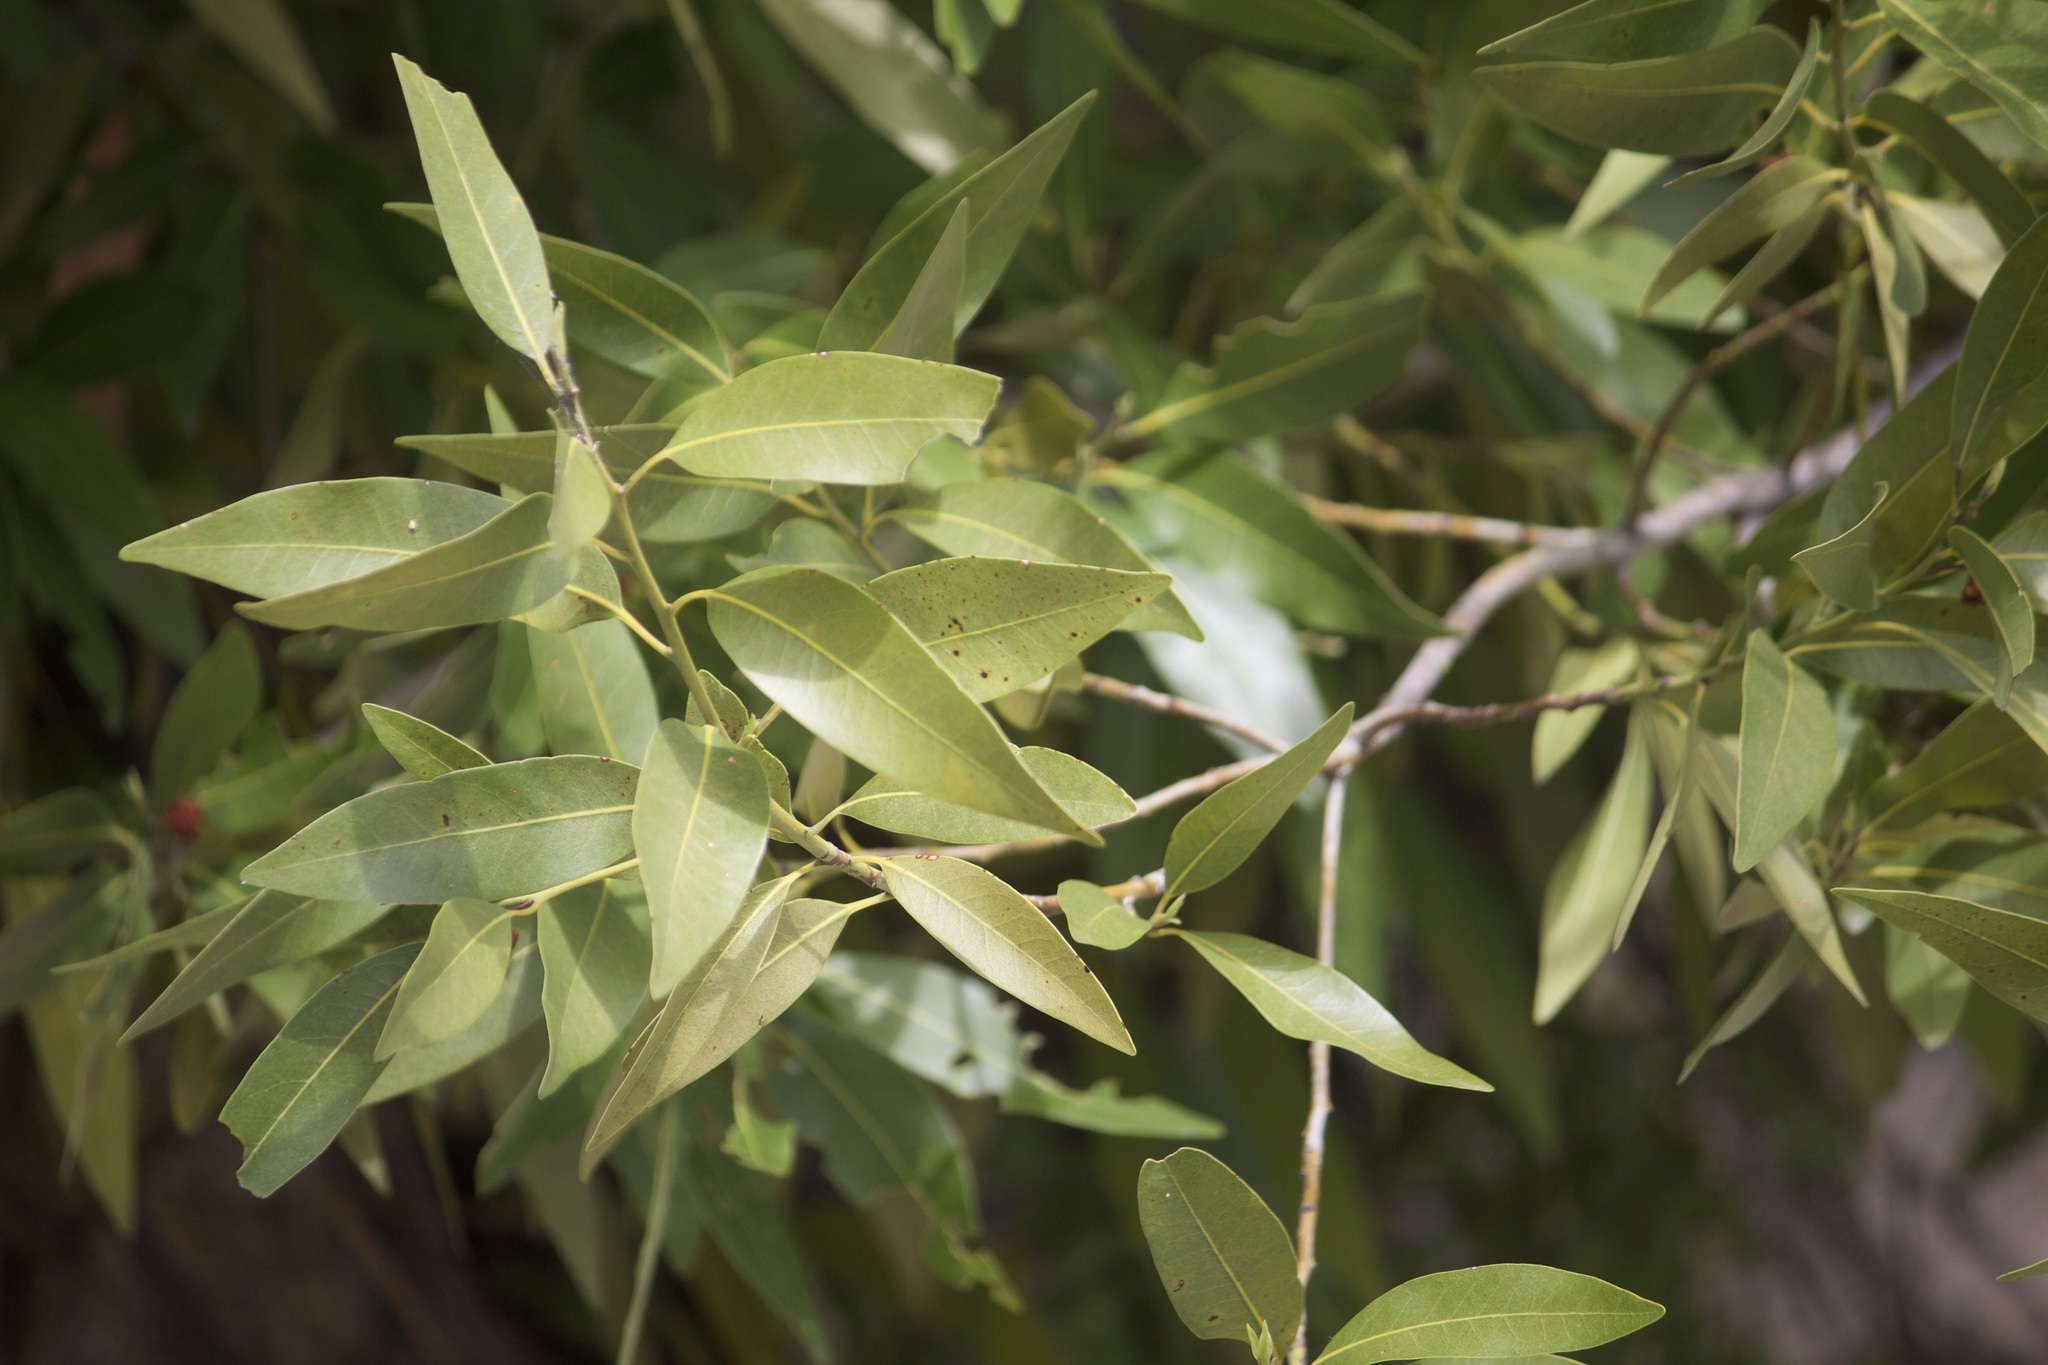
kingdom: Plantae
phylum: Tracheophyta
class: Magnoliopsida
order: Laurales
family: Lauraceae
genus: Umbellularia
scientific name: Umbellularia californica
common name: California bay
